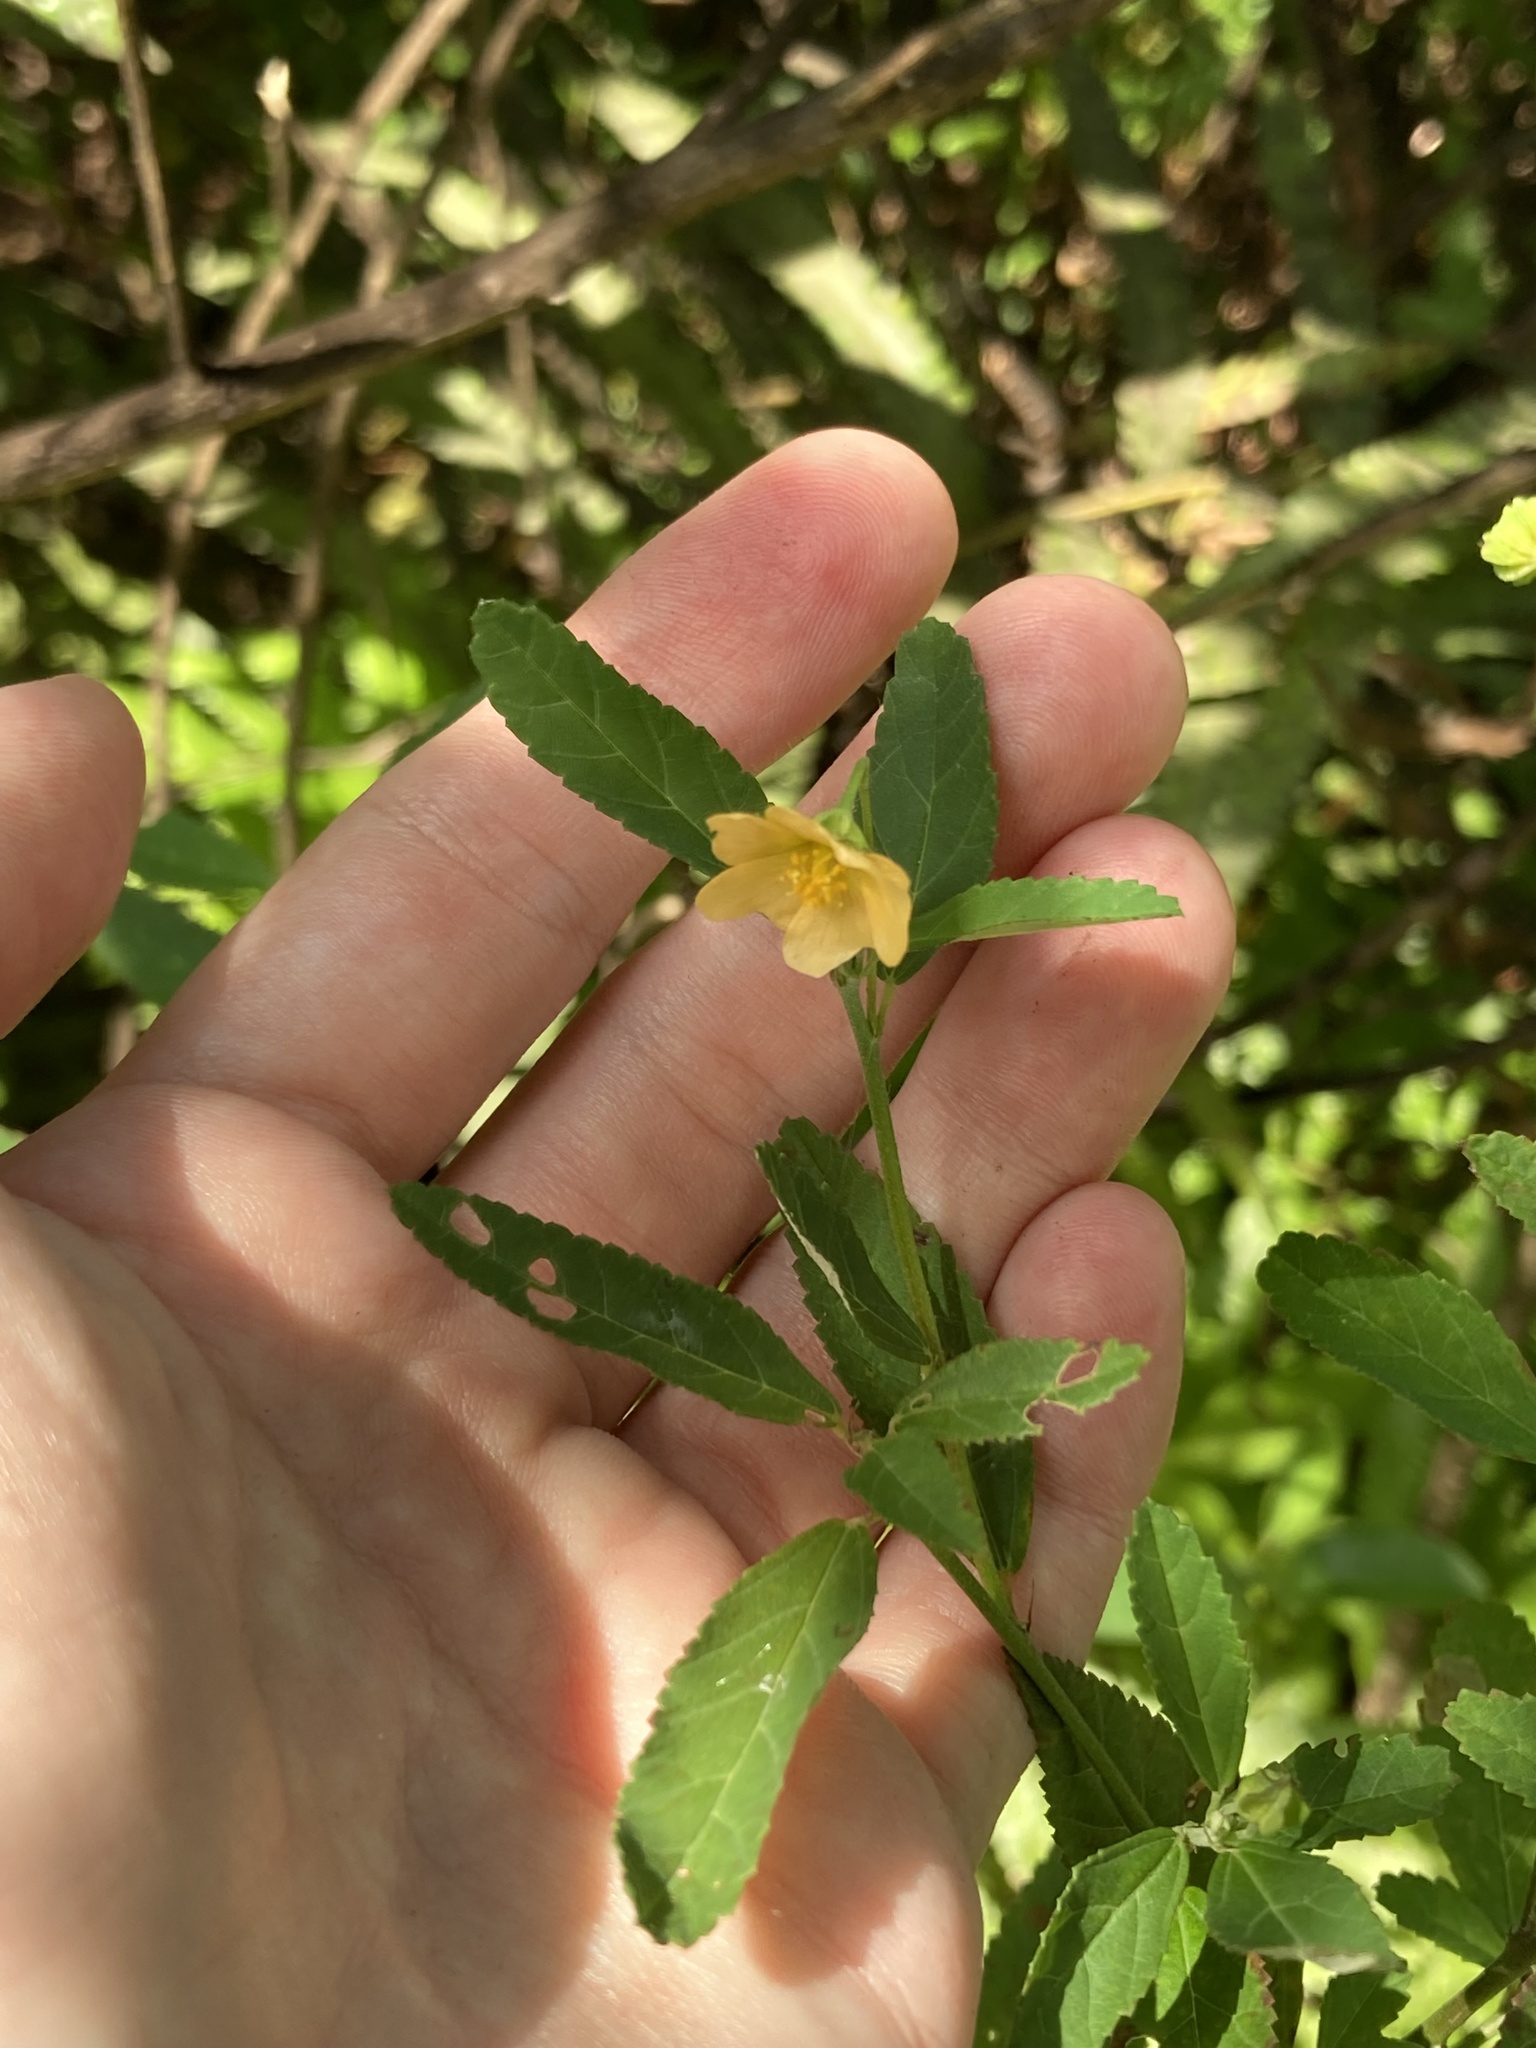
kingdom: Plantae
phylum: Tracheophyta
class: Magnoliopsida
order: Malvales
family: Malvaceae
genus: Sida
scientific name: Sida rhombifolia
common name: Queensland-hemp
